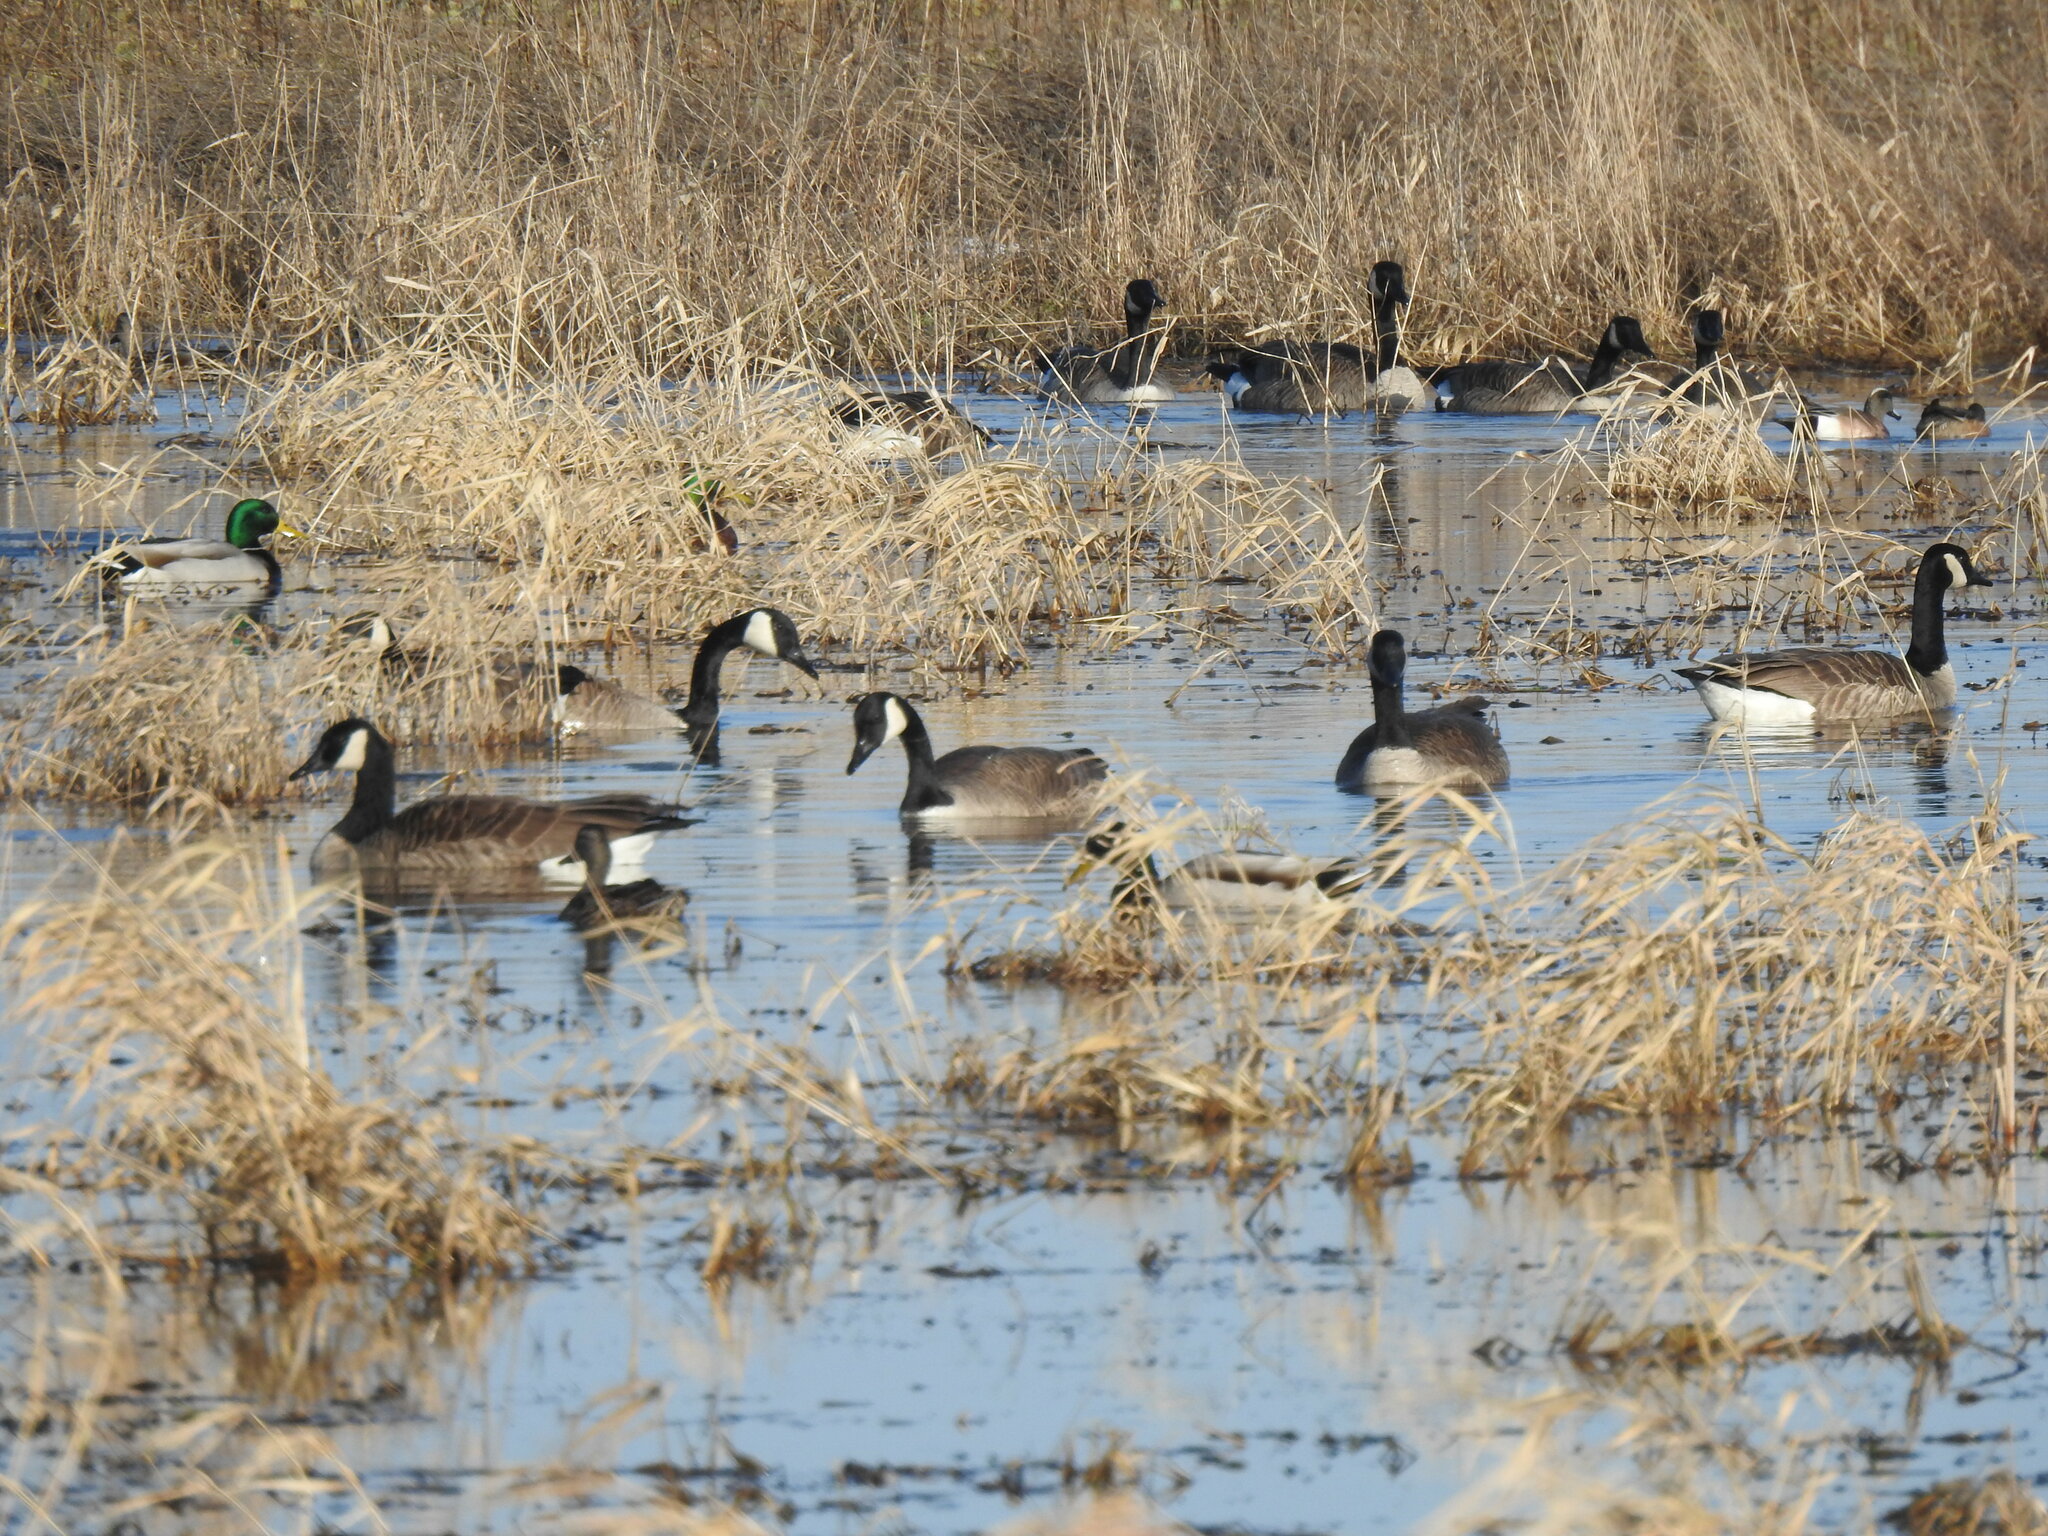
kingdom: Animalia
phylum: Chordata
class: Aves
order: Anseriformes
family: Anatidae
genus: Branta
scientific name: Branta canadensis
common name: Canada goose
